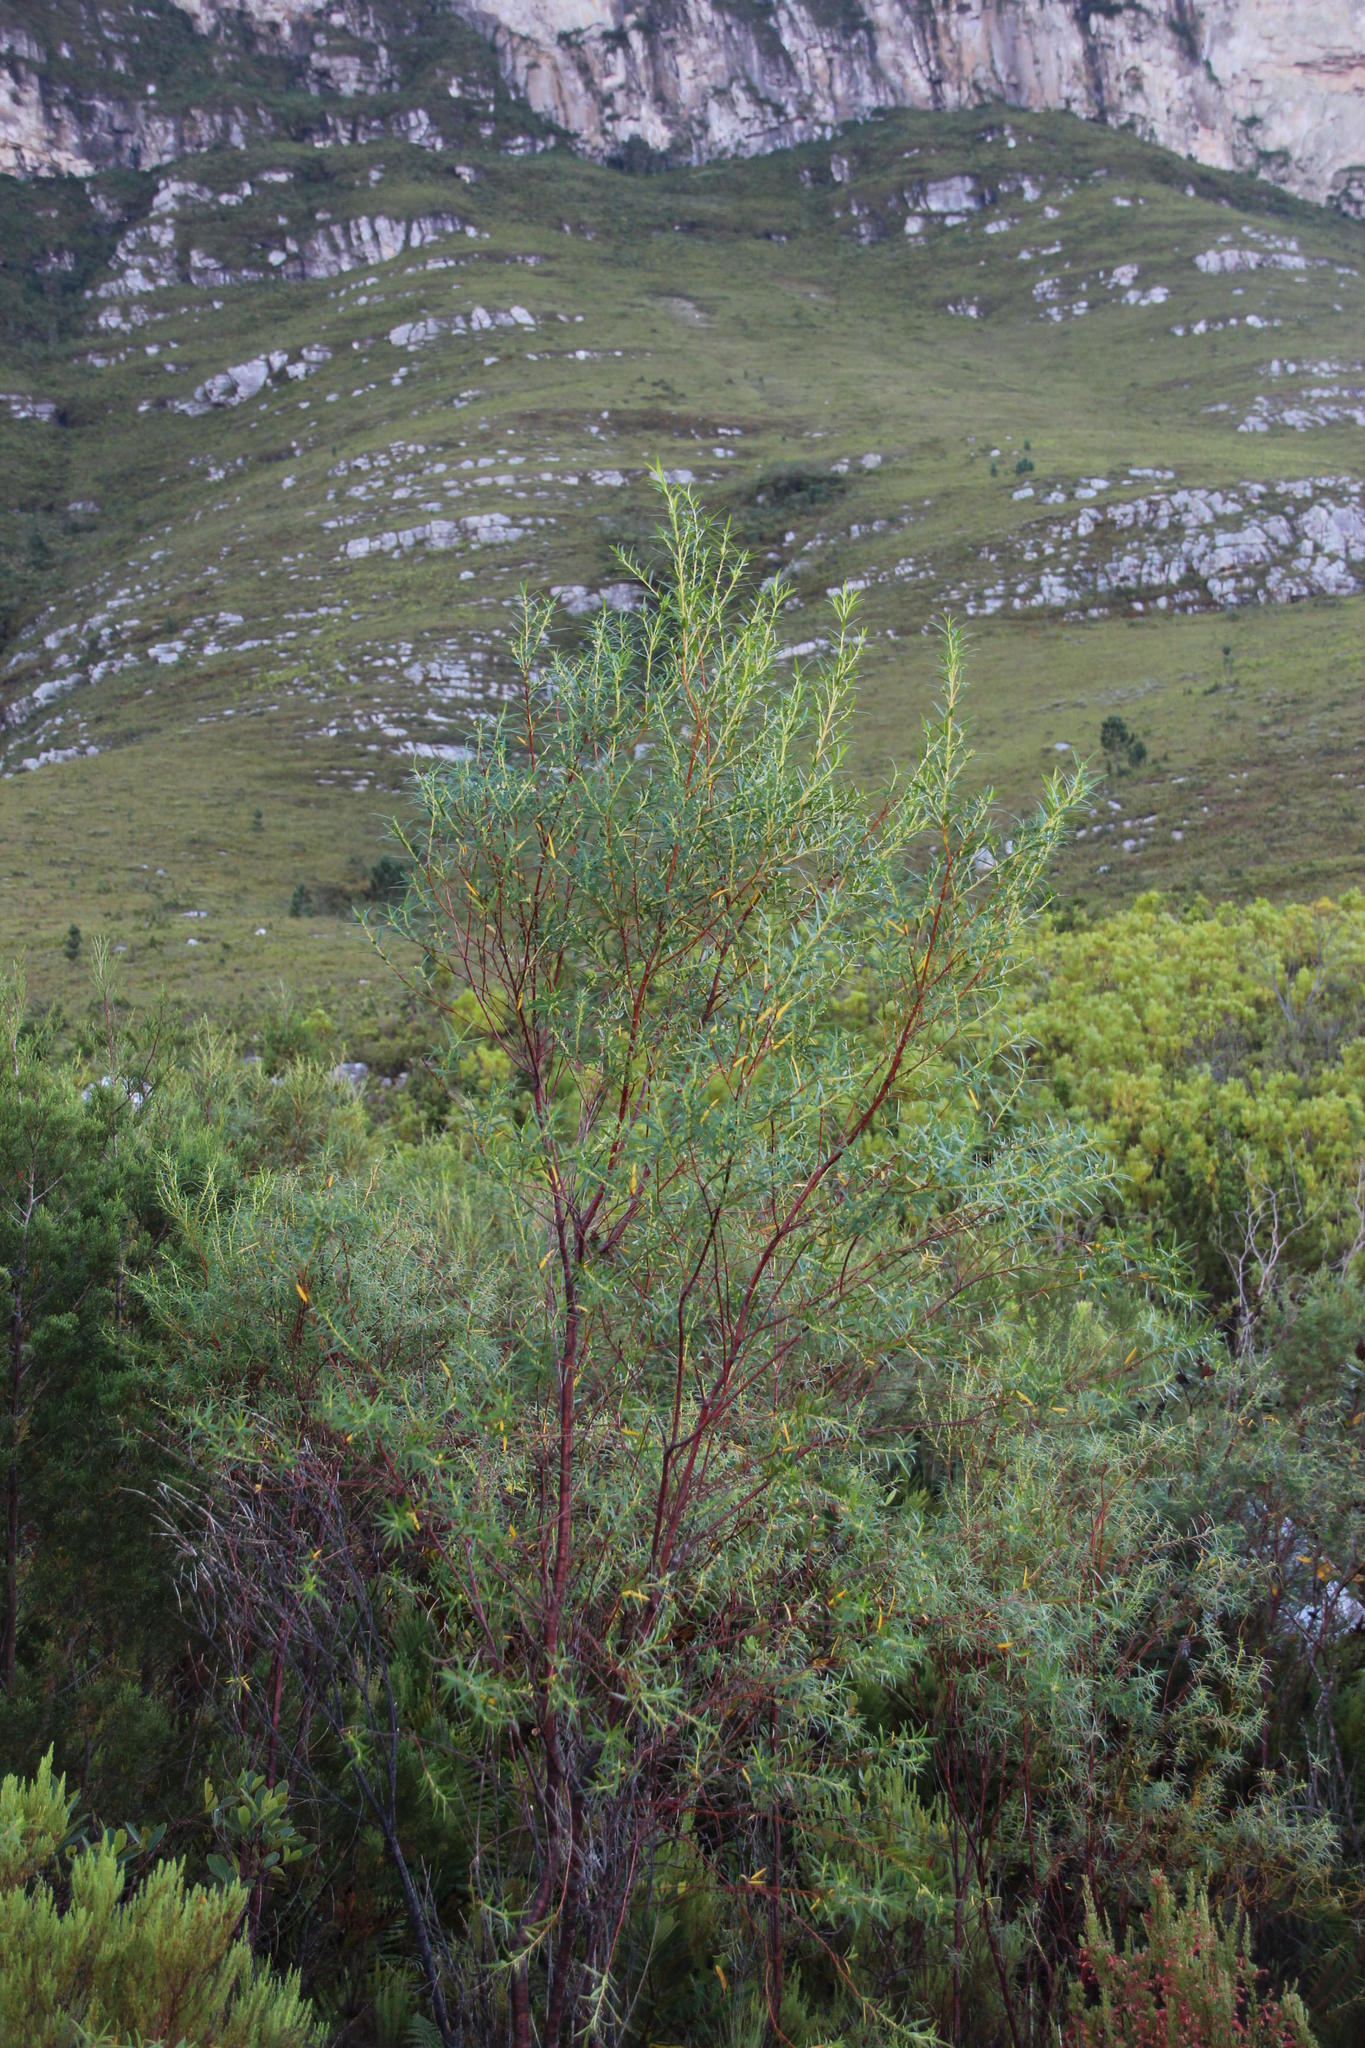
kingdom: Plantae
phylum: Tracheophyta
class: Magnoliopsida
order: Cornales
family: Grubbiaceae
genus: Grubbia
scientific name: Grubbia rosmarinifolia
